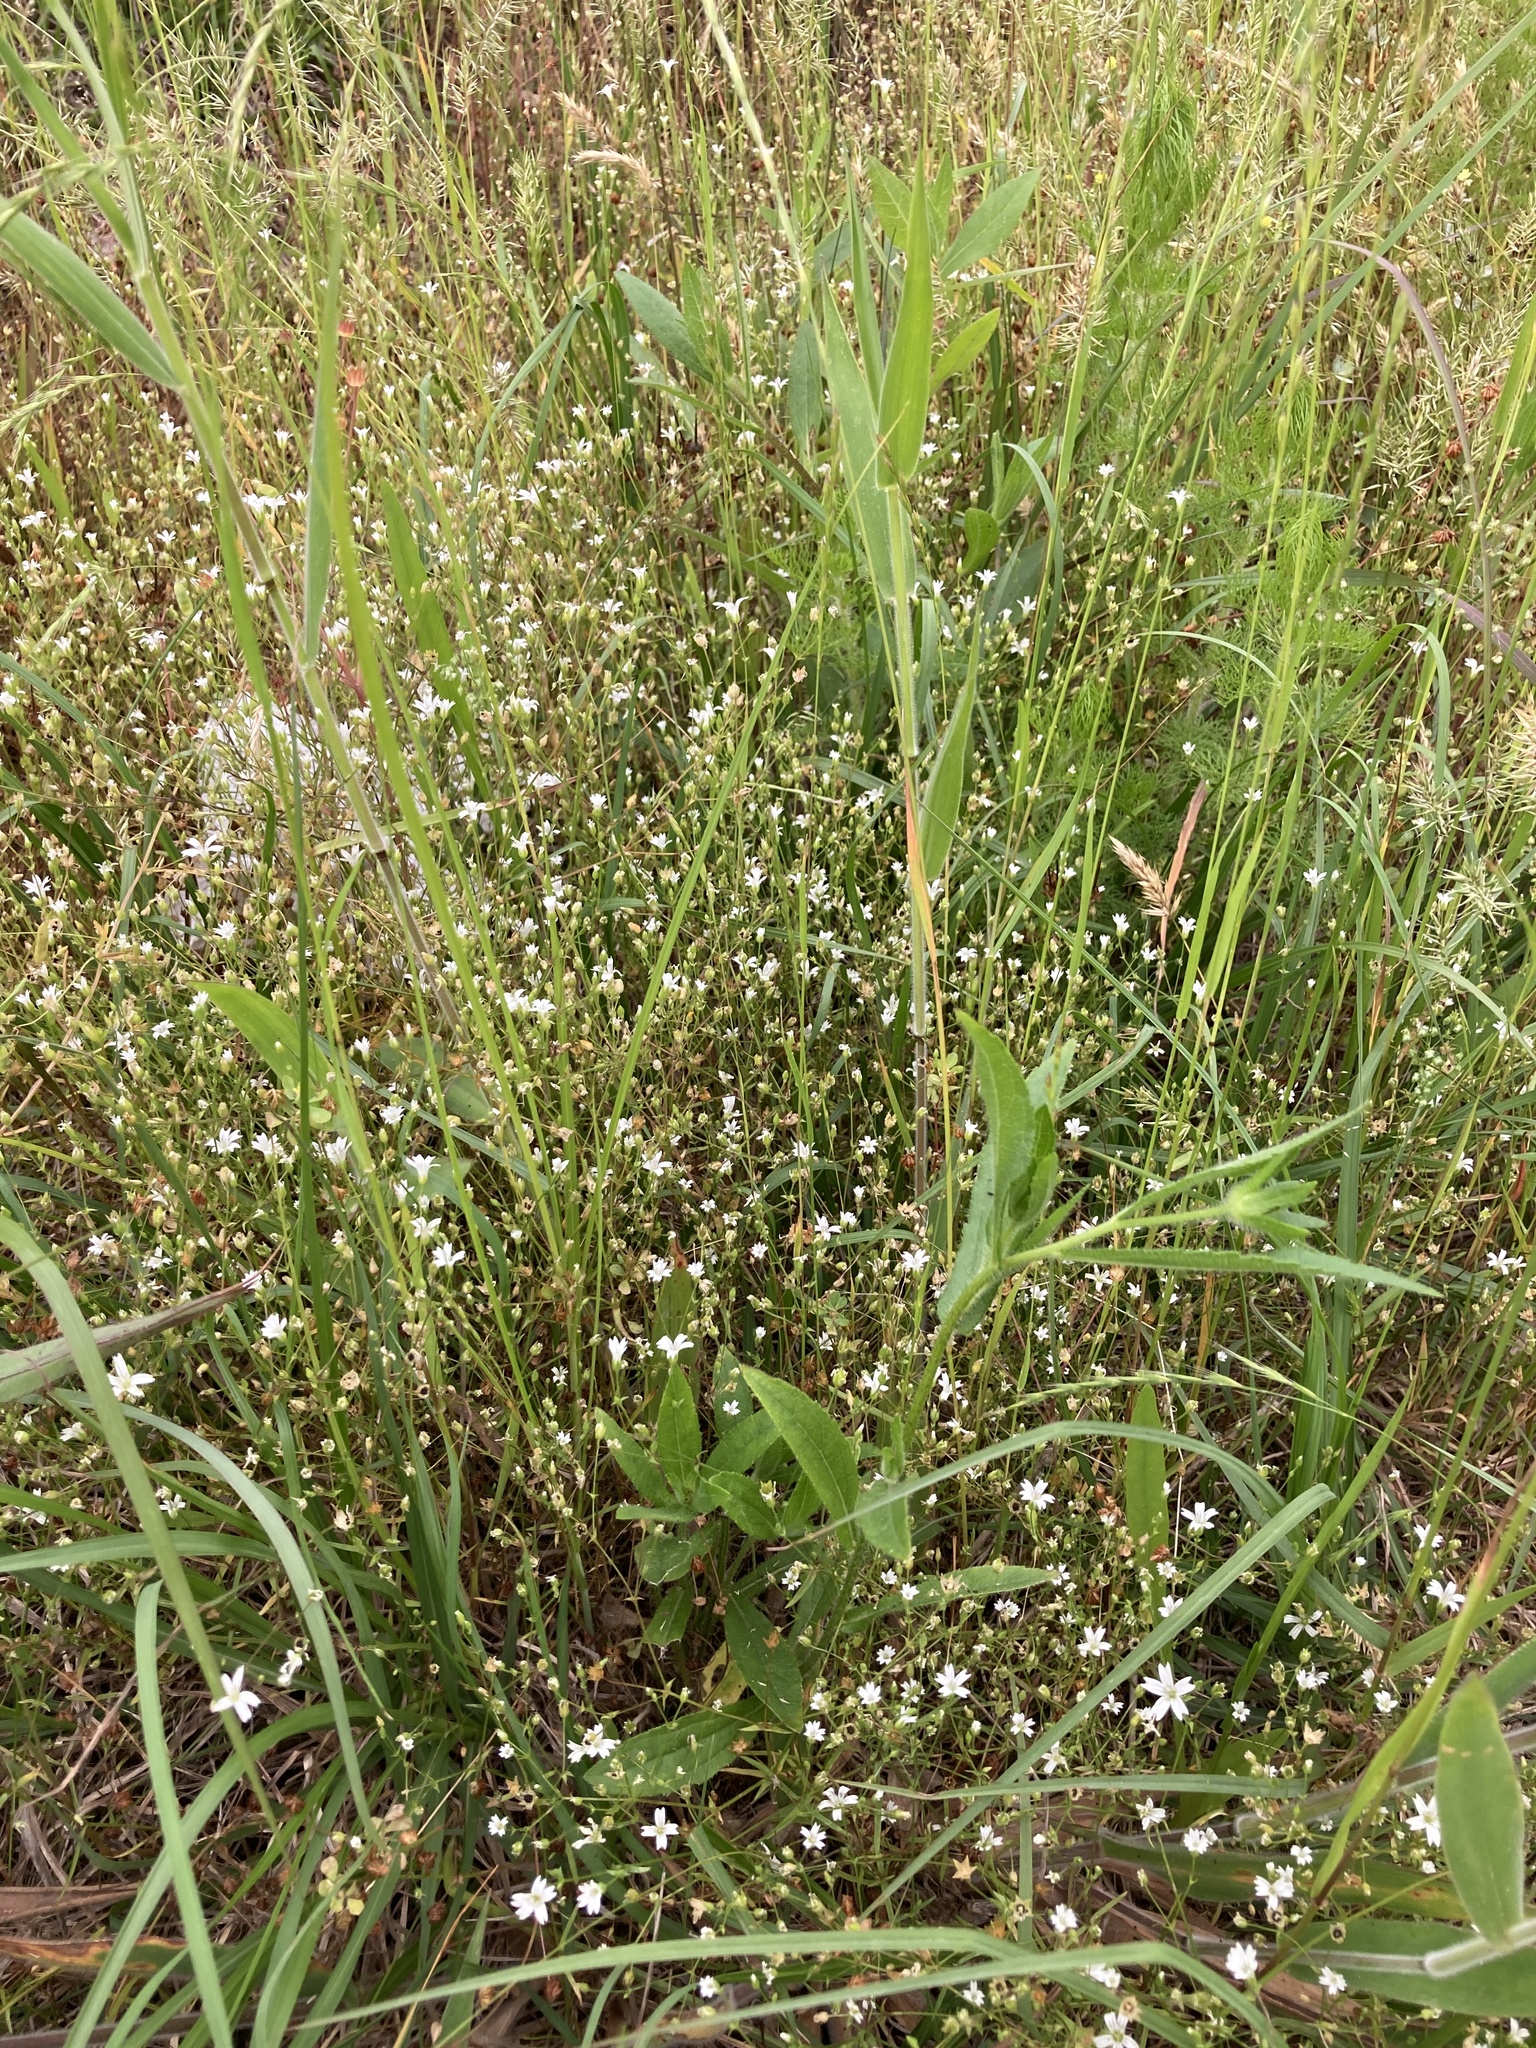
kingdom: Plantae
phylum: Tracheophyta
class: Magnoliopsida
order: Caryophyllales
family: Caryophyllaceae
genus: Mononeuria
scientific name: Mononeuria muscorum
